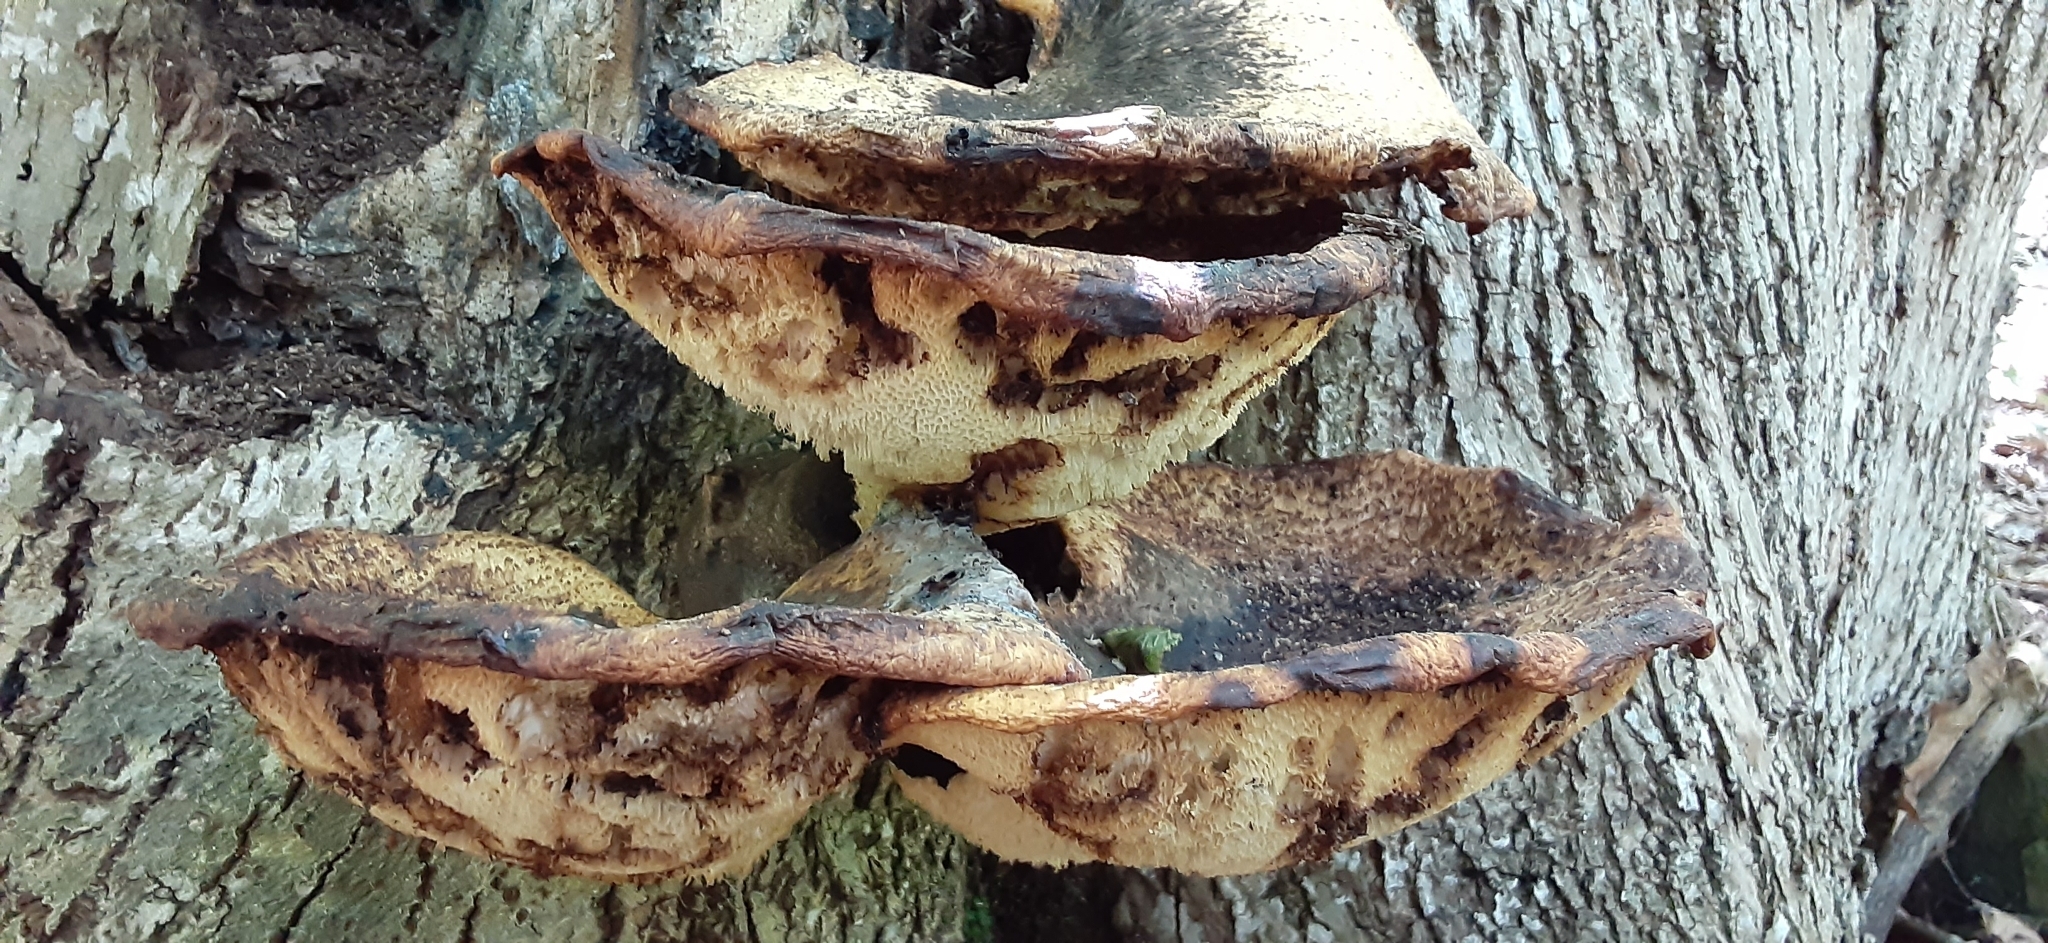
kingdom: Fungi
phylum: Basidiomycota
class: Agaricomycetes
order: Polyporales
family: Polyporaceae
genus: Cerioporus
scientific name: Cerioporus squamosus
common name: Dryad's saddle
